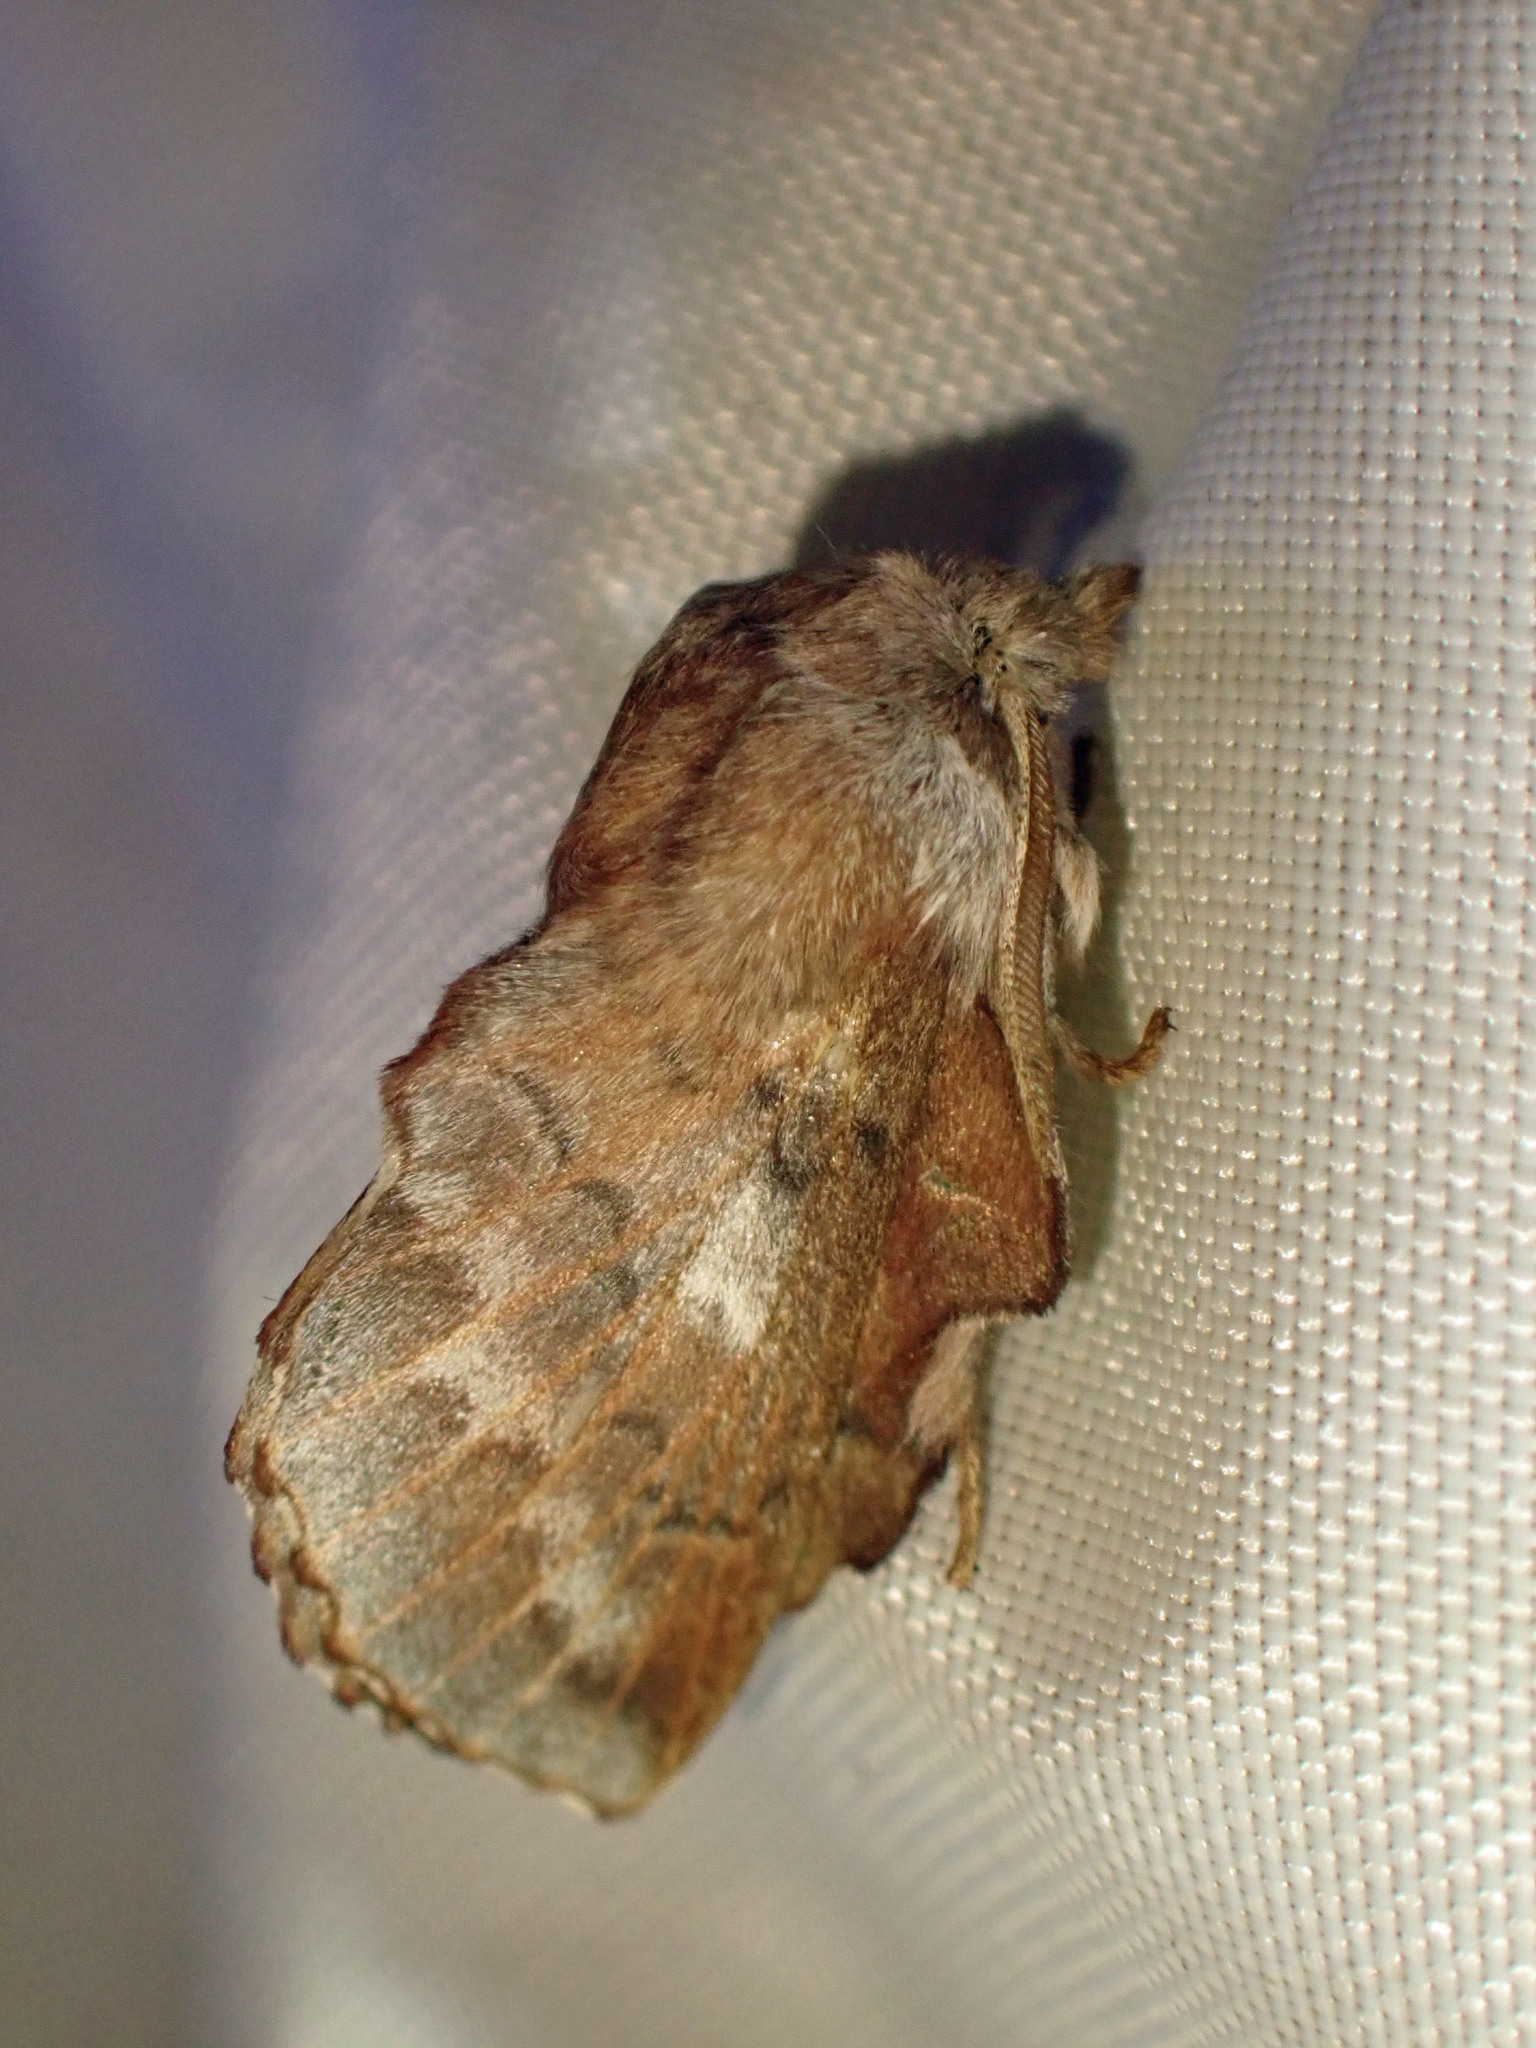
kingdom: Animalia
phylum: Arthropoda
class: Insecta
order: Lepidoptera
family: Lasiocampidae
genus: Phyllodesma
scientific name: Phyllodesma americana
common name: American lappet moth
